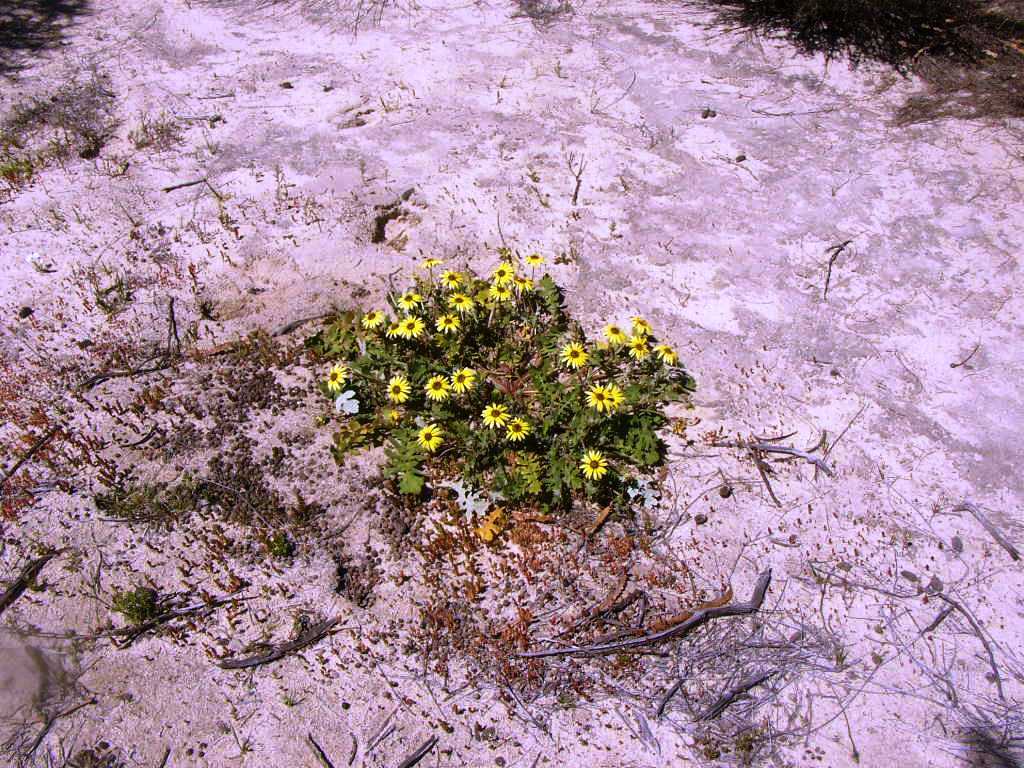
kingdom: Plantae
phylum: Tracheophyta
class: Magnoliopsida
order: Asterales
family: Asteraceae
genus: Arctotheca
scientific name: Arctotheca calendula
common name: Capeweed
